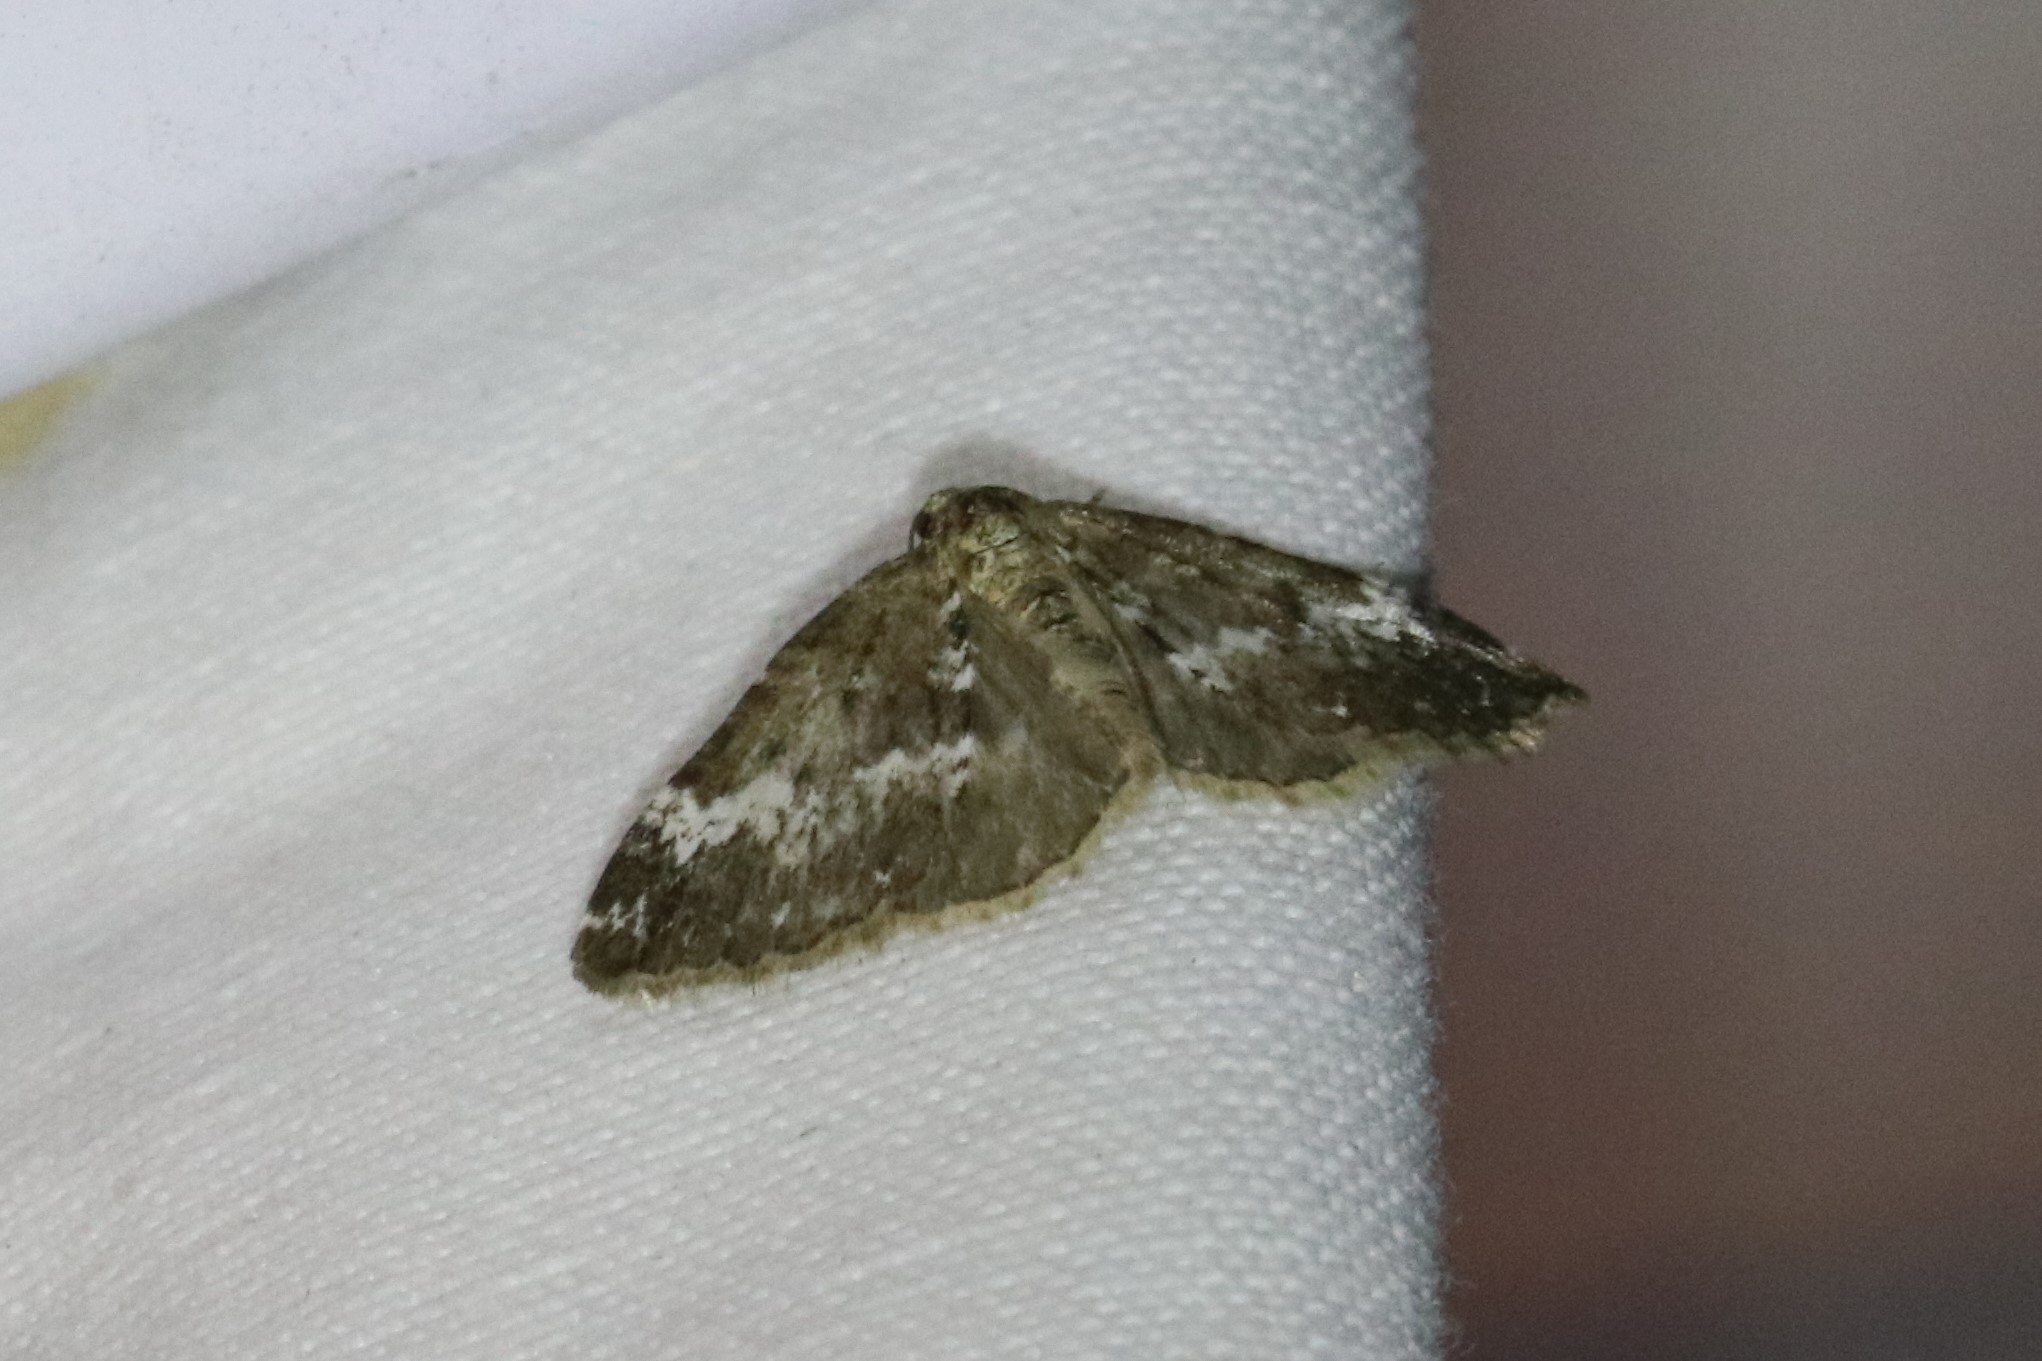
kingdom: Animalia
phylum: Arthropoda
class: Insecta
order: Lepidoptera
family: Geometridae
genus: Perizoma
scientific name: Perizoma alchemillata
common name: Small rivulet
